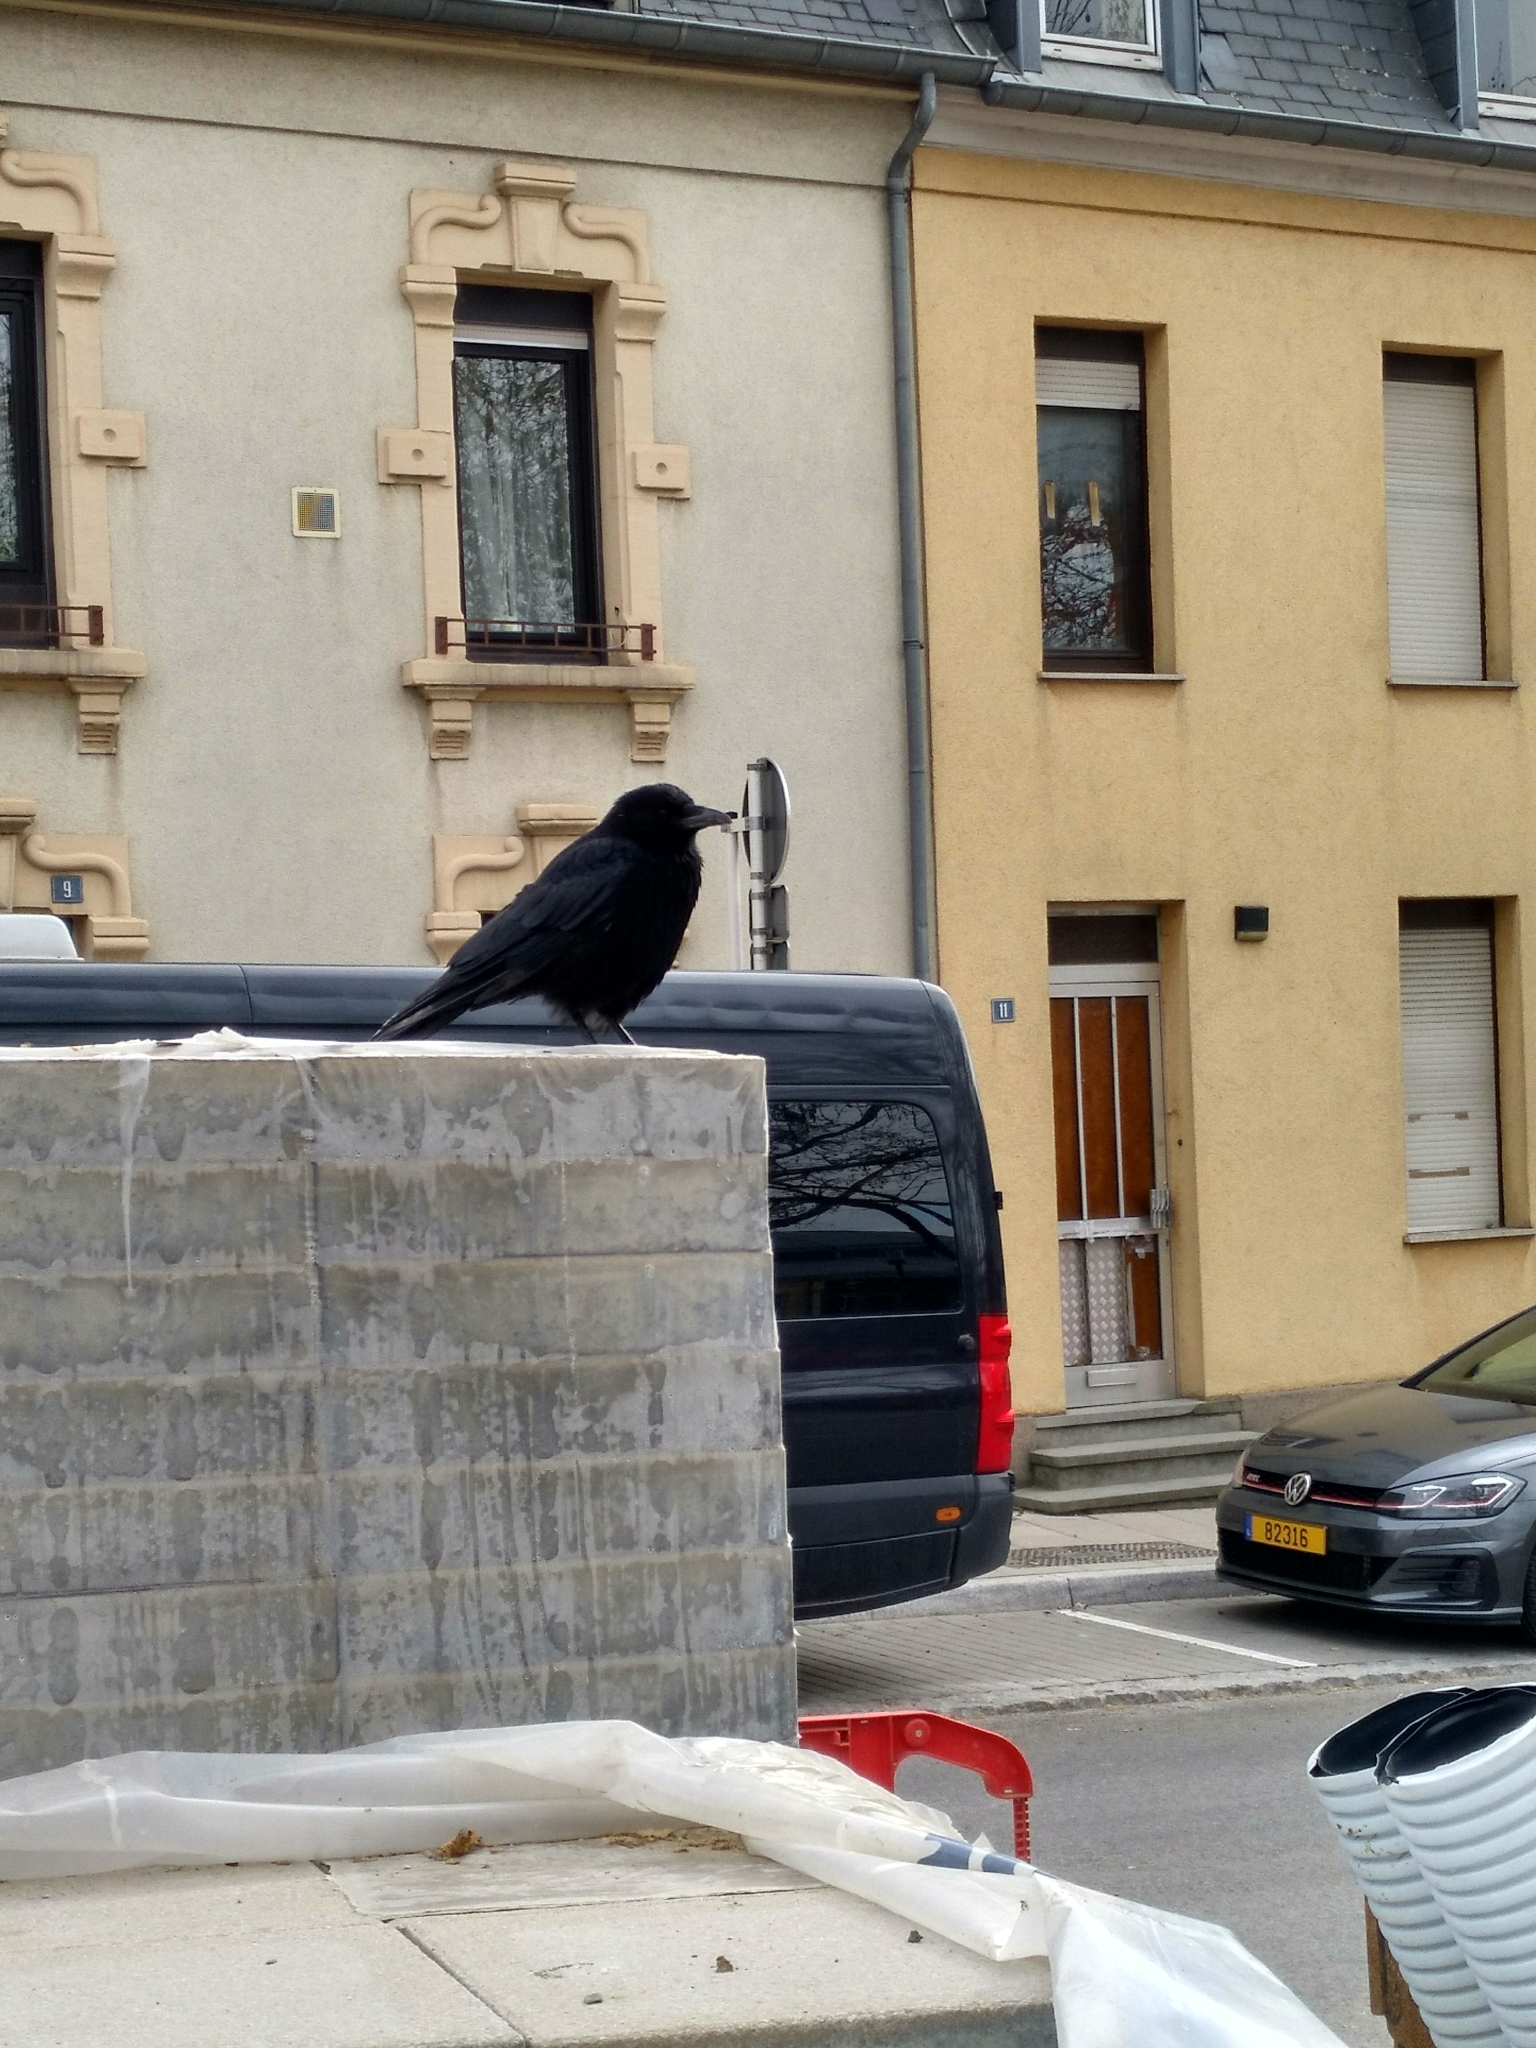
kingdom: Animalia
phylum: Chordata
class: Aves
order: Passeriformes
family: Corvidae
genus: Corvus
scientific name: Corvus corone
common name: Carrion crow
